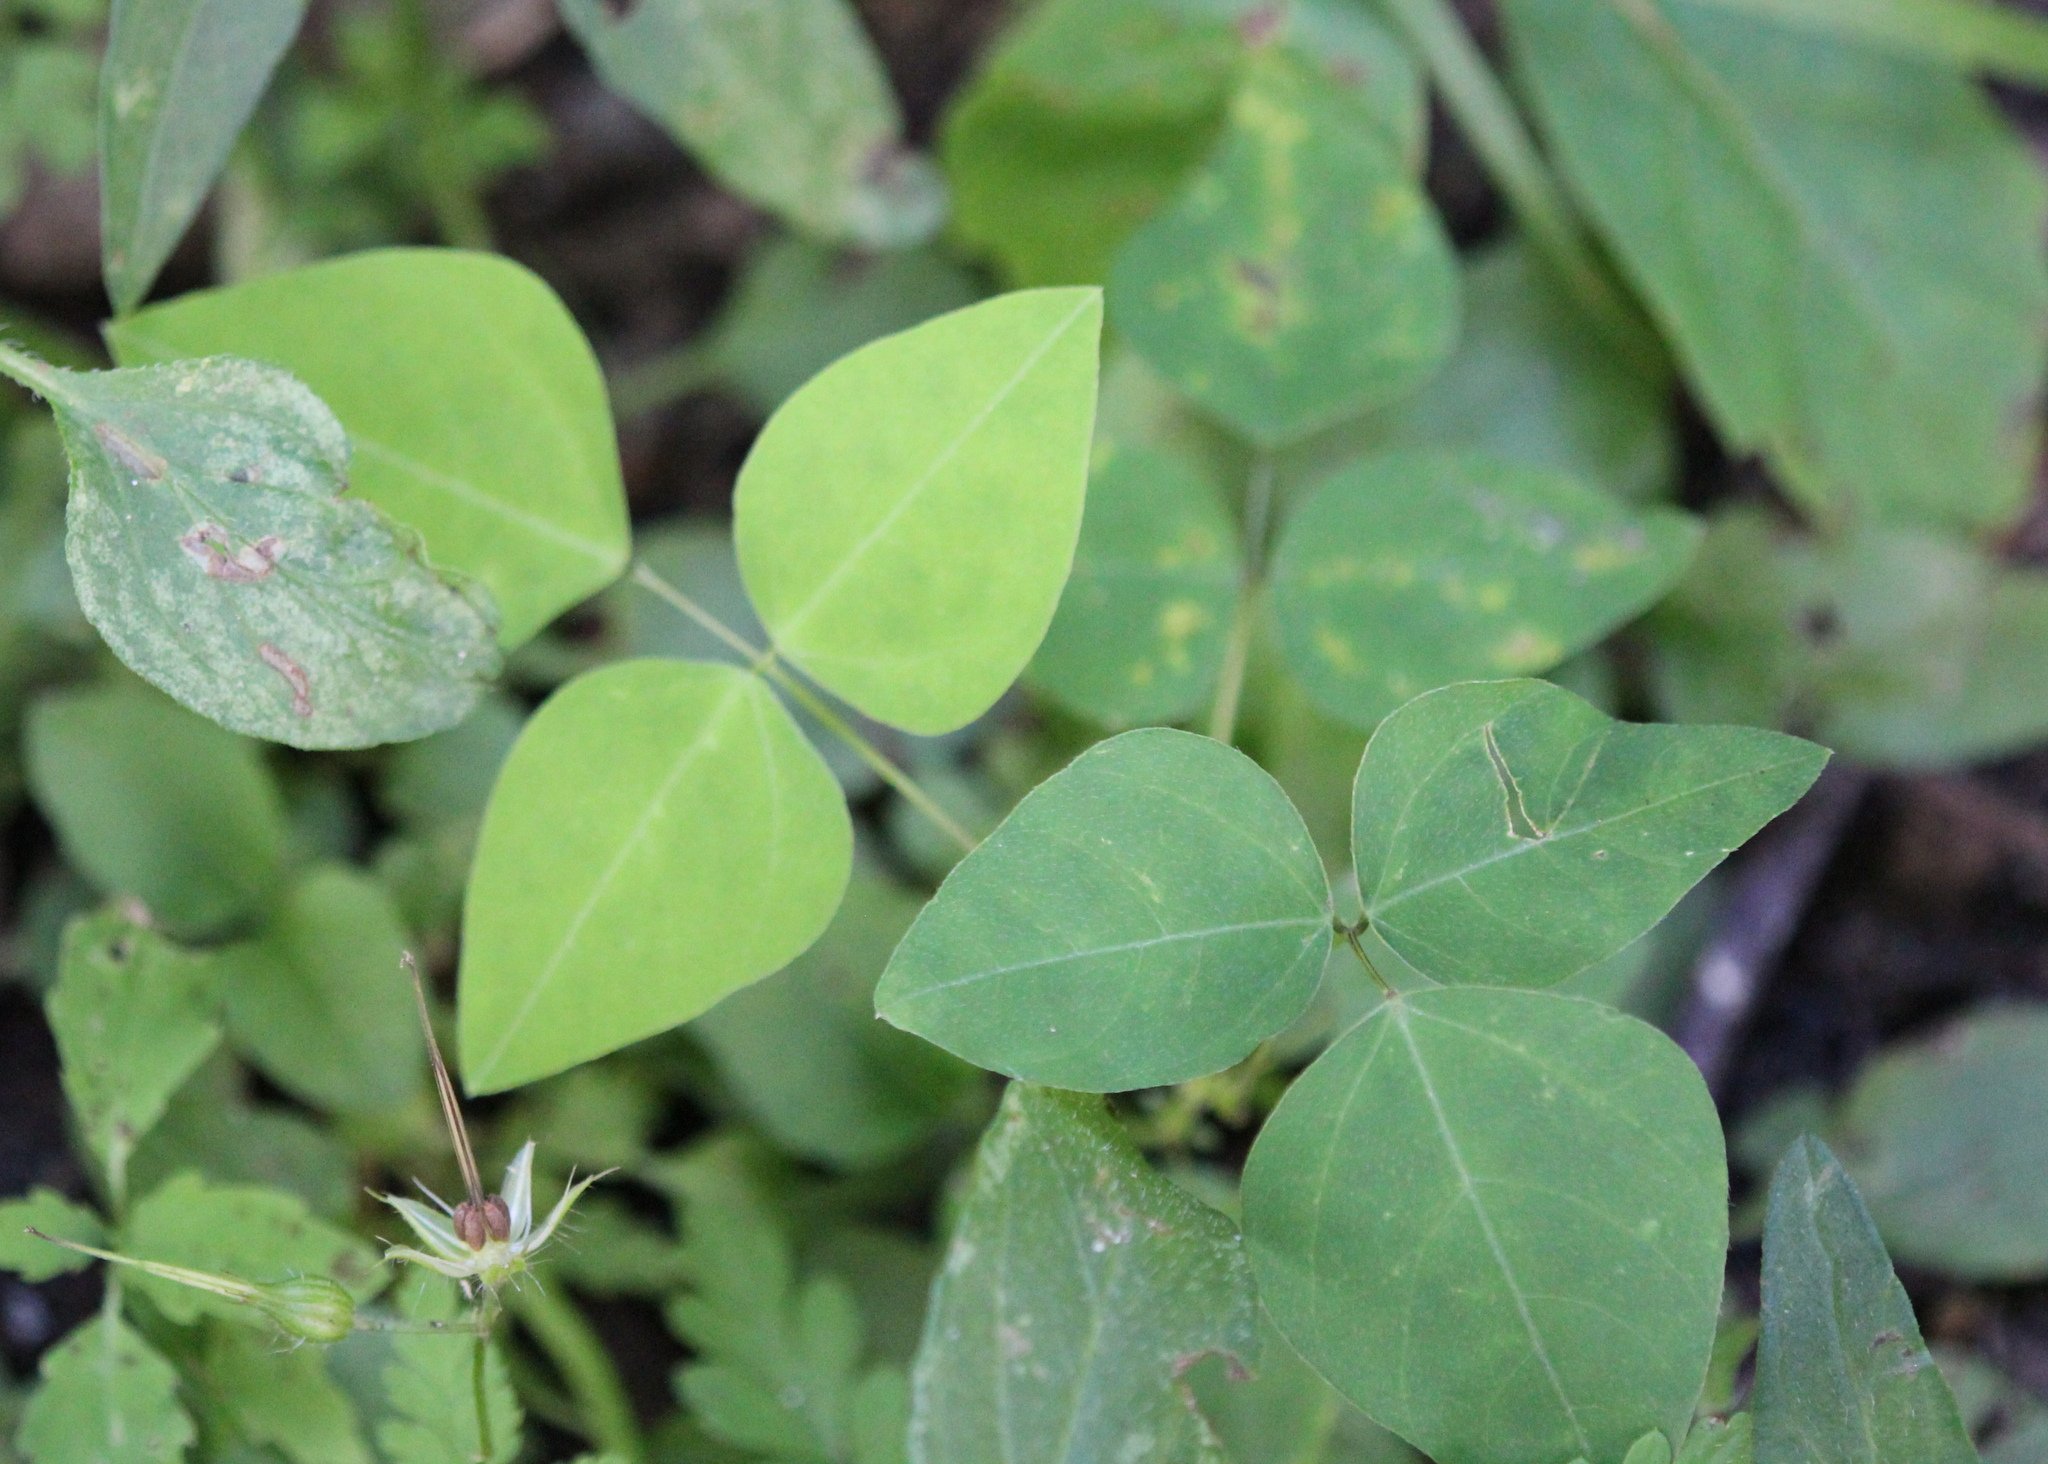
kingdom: Plantae
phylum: Tracheophyta
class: Magnoliopsida
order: Fabales
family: Fabaceae
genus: Amphicarpaea
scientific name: Amphicarpaea bracteata
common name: American hog peanut
